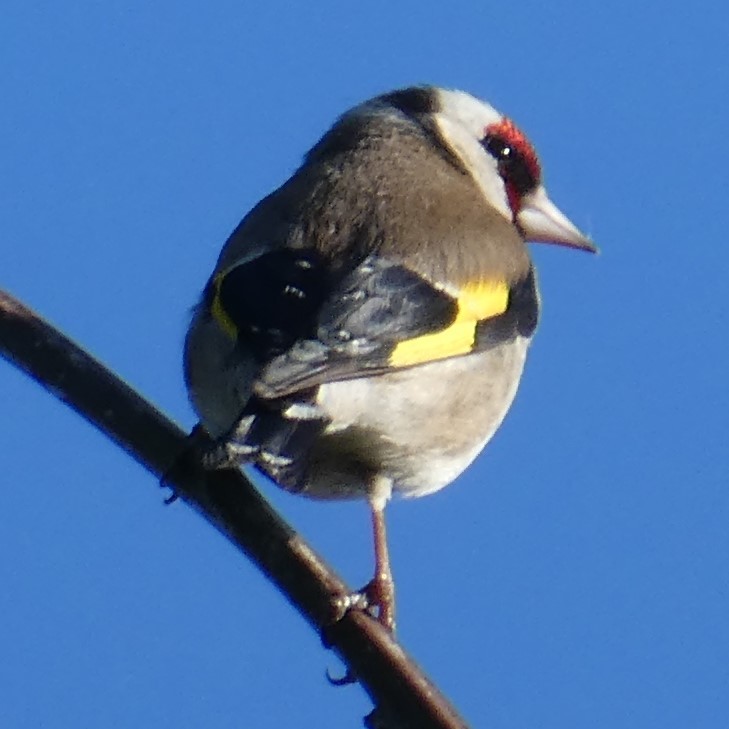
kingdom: Animalia
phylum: Chordata
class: Aves
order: Passeriformes
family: Fringillidae
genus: Carduelis
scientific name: Carduelis carduelis
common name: European goldfinch
